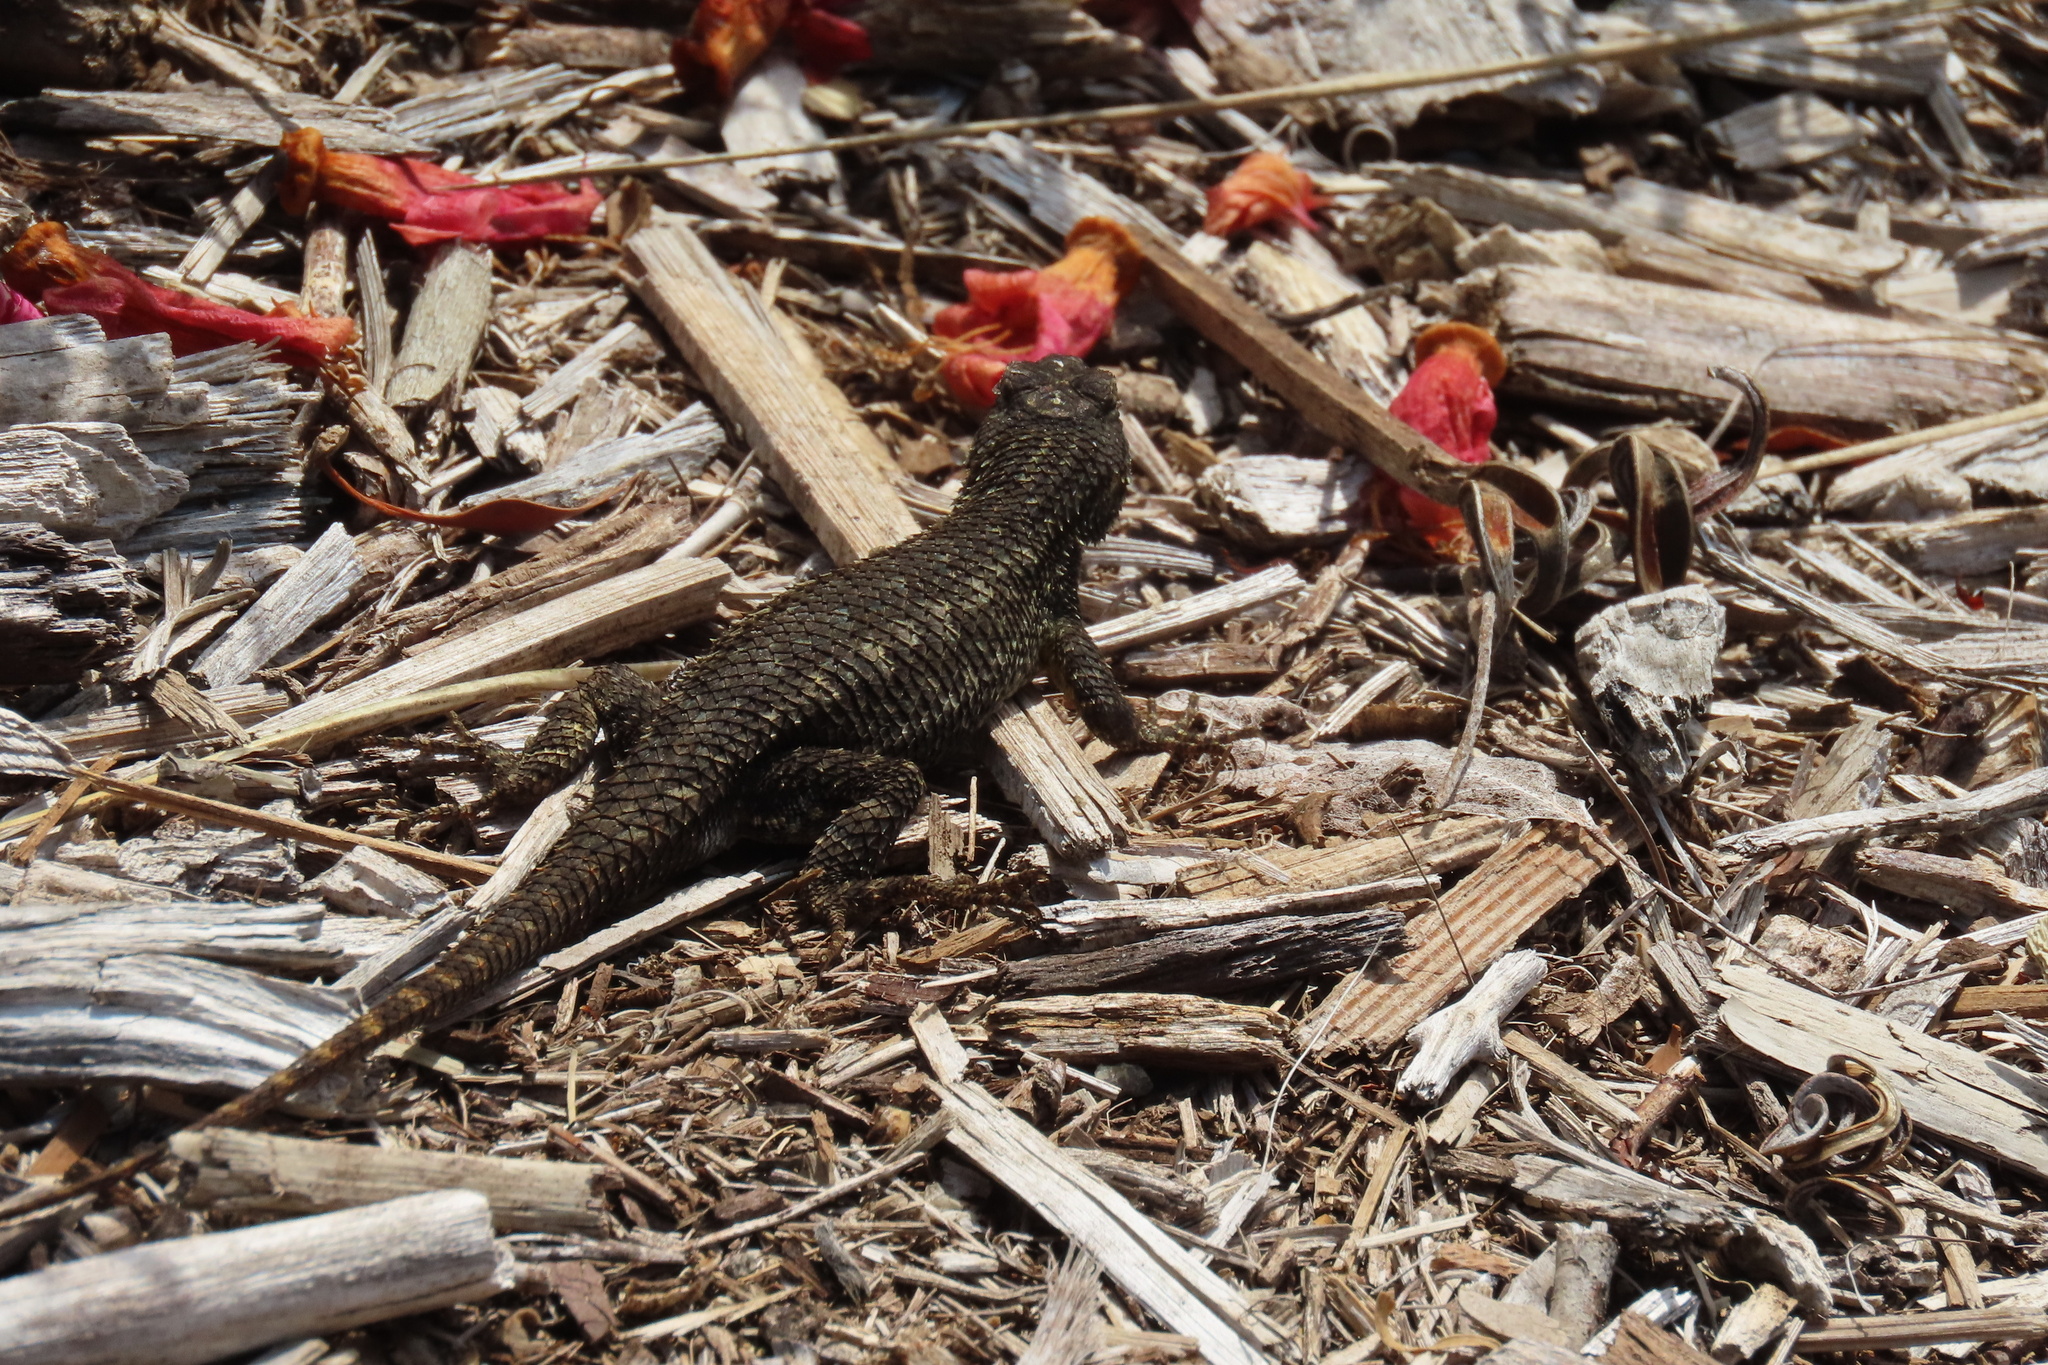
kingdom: Animalia
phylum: Chordata
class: Squamata
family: Phrynosomatidae
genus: Sceloporus
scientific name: Sceloporus occidentalis
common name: Western fence lizard
